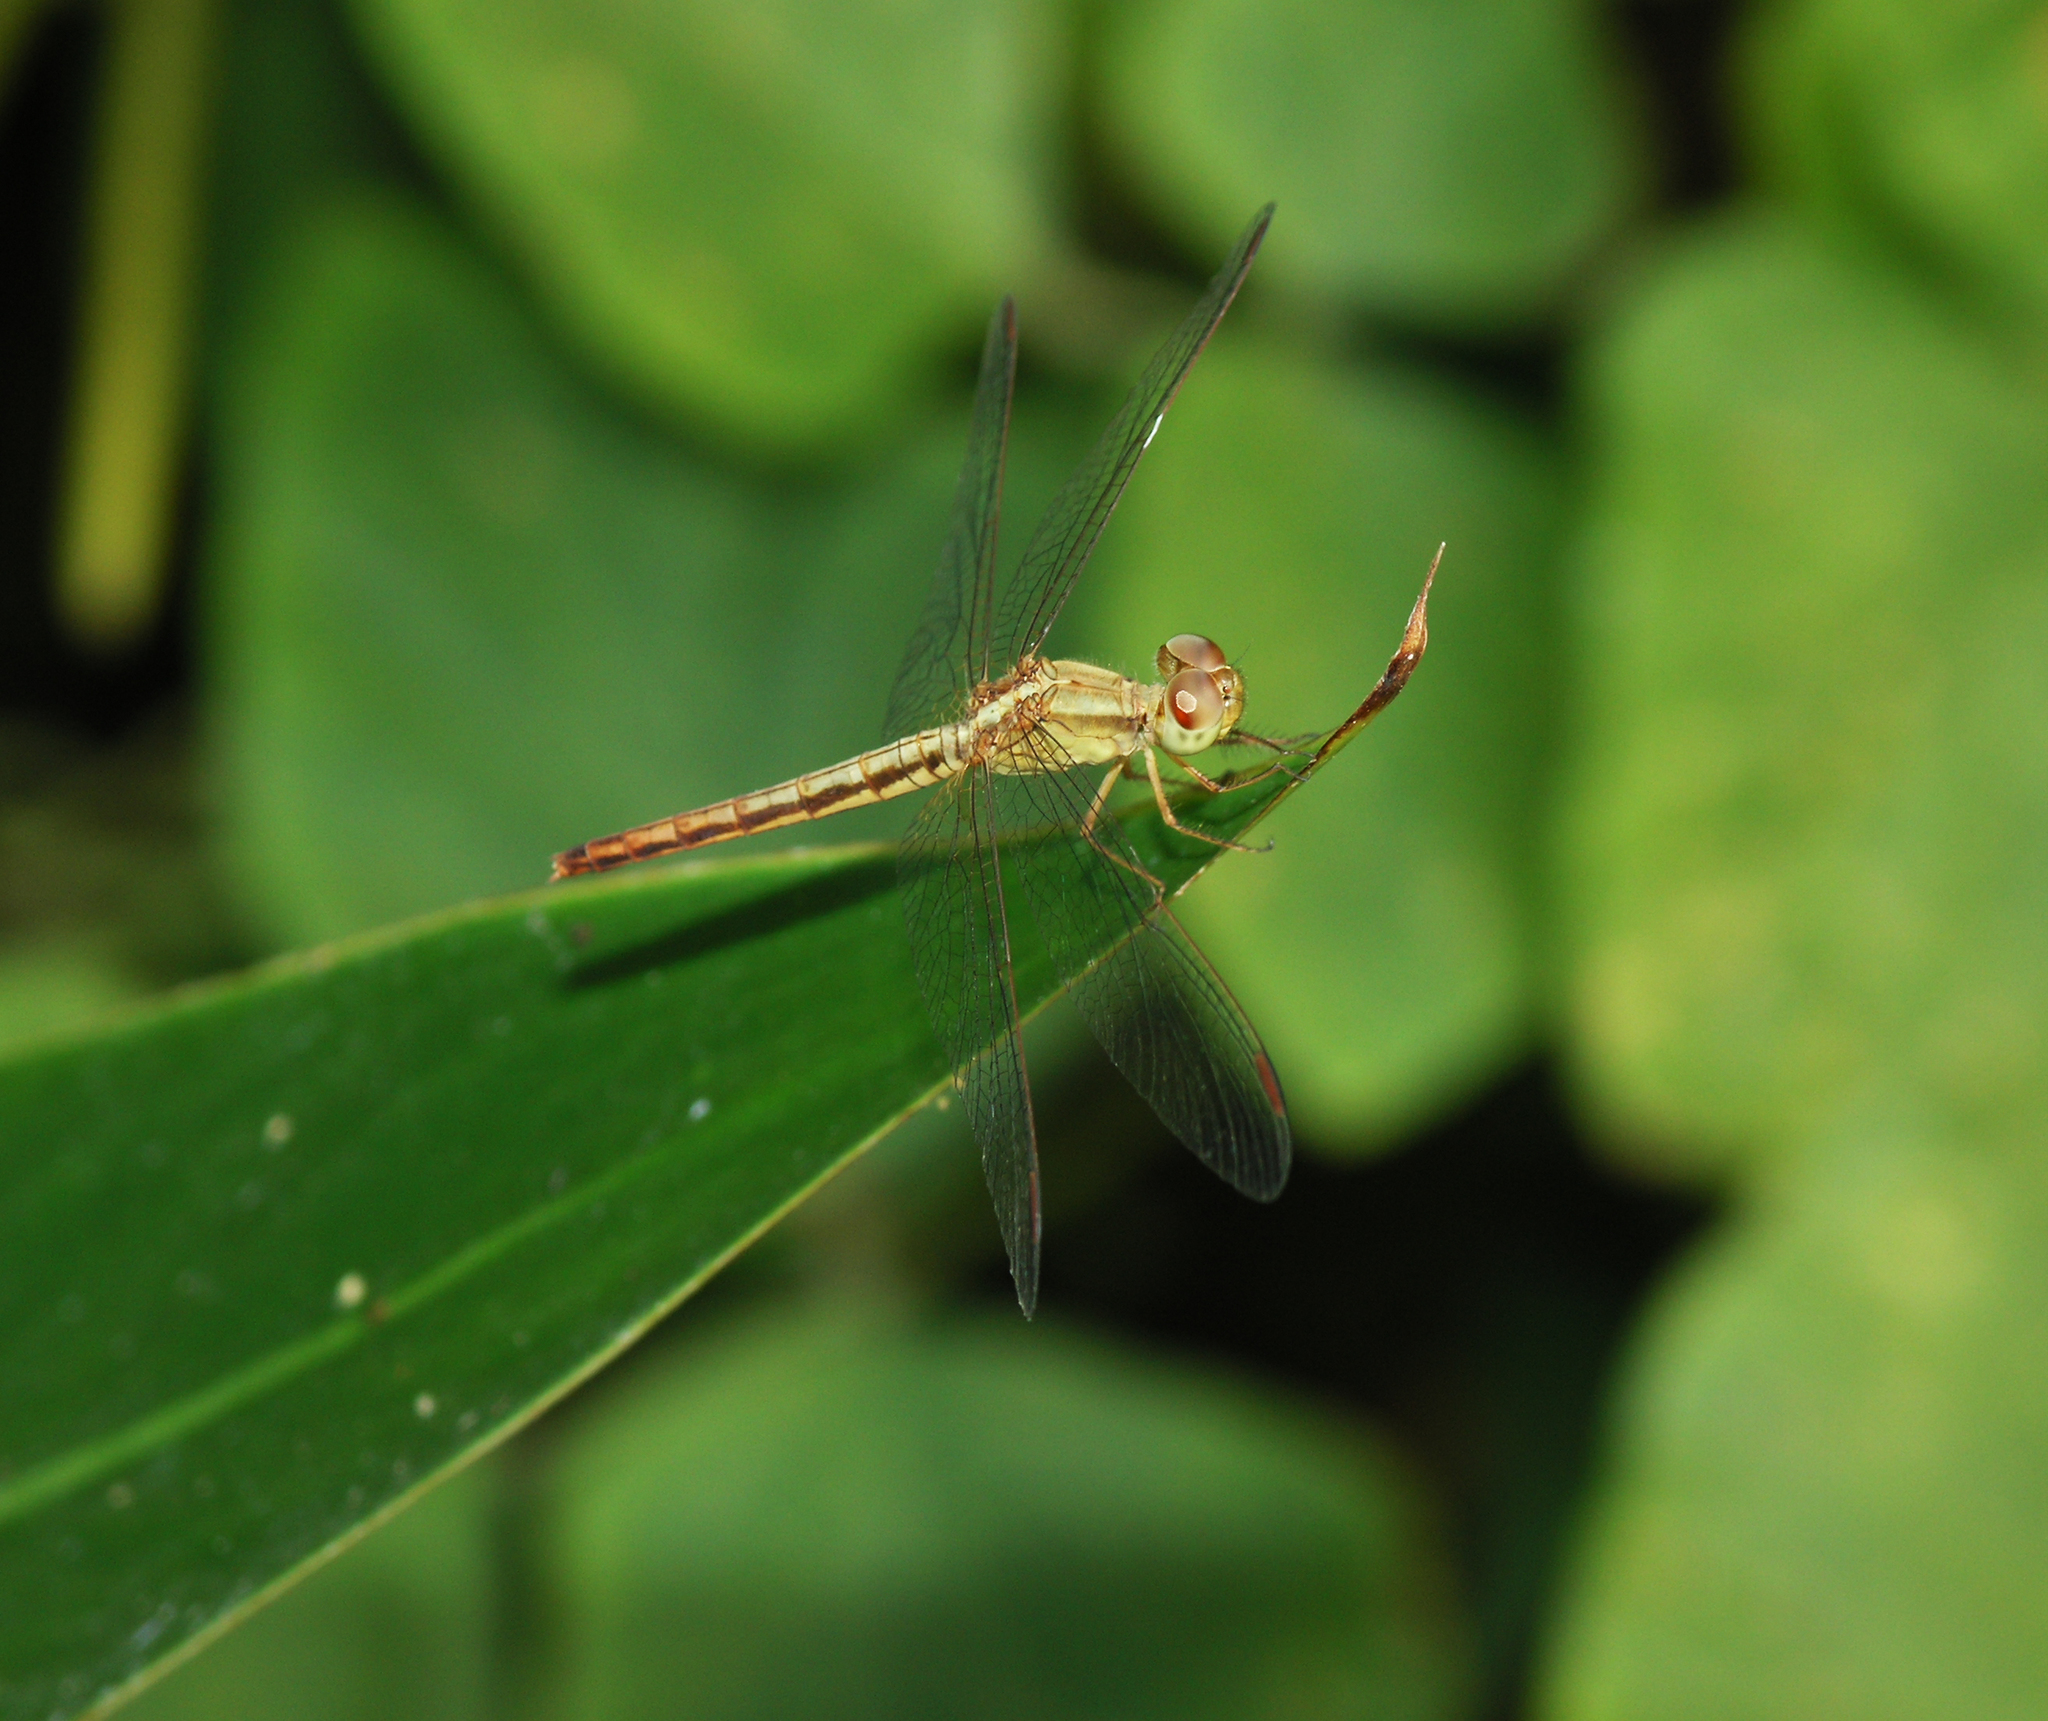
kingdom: Animalia
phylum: Arthropoda
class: Insecta
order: Odonata
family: Libellulidae
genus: Neurothemis
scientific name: Neurothemis intermedia
